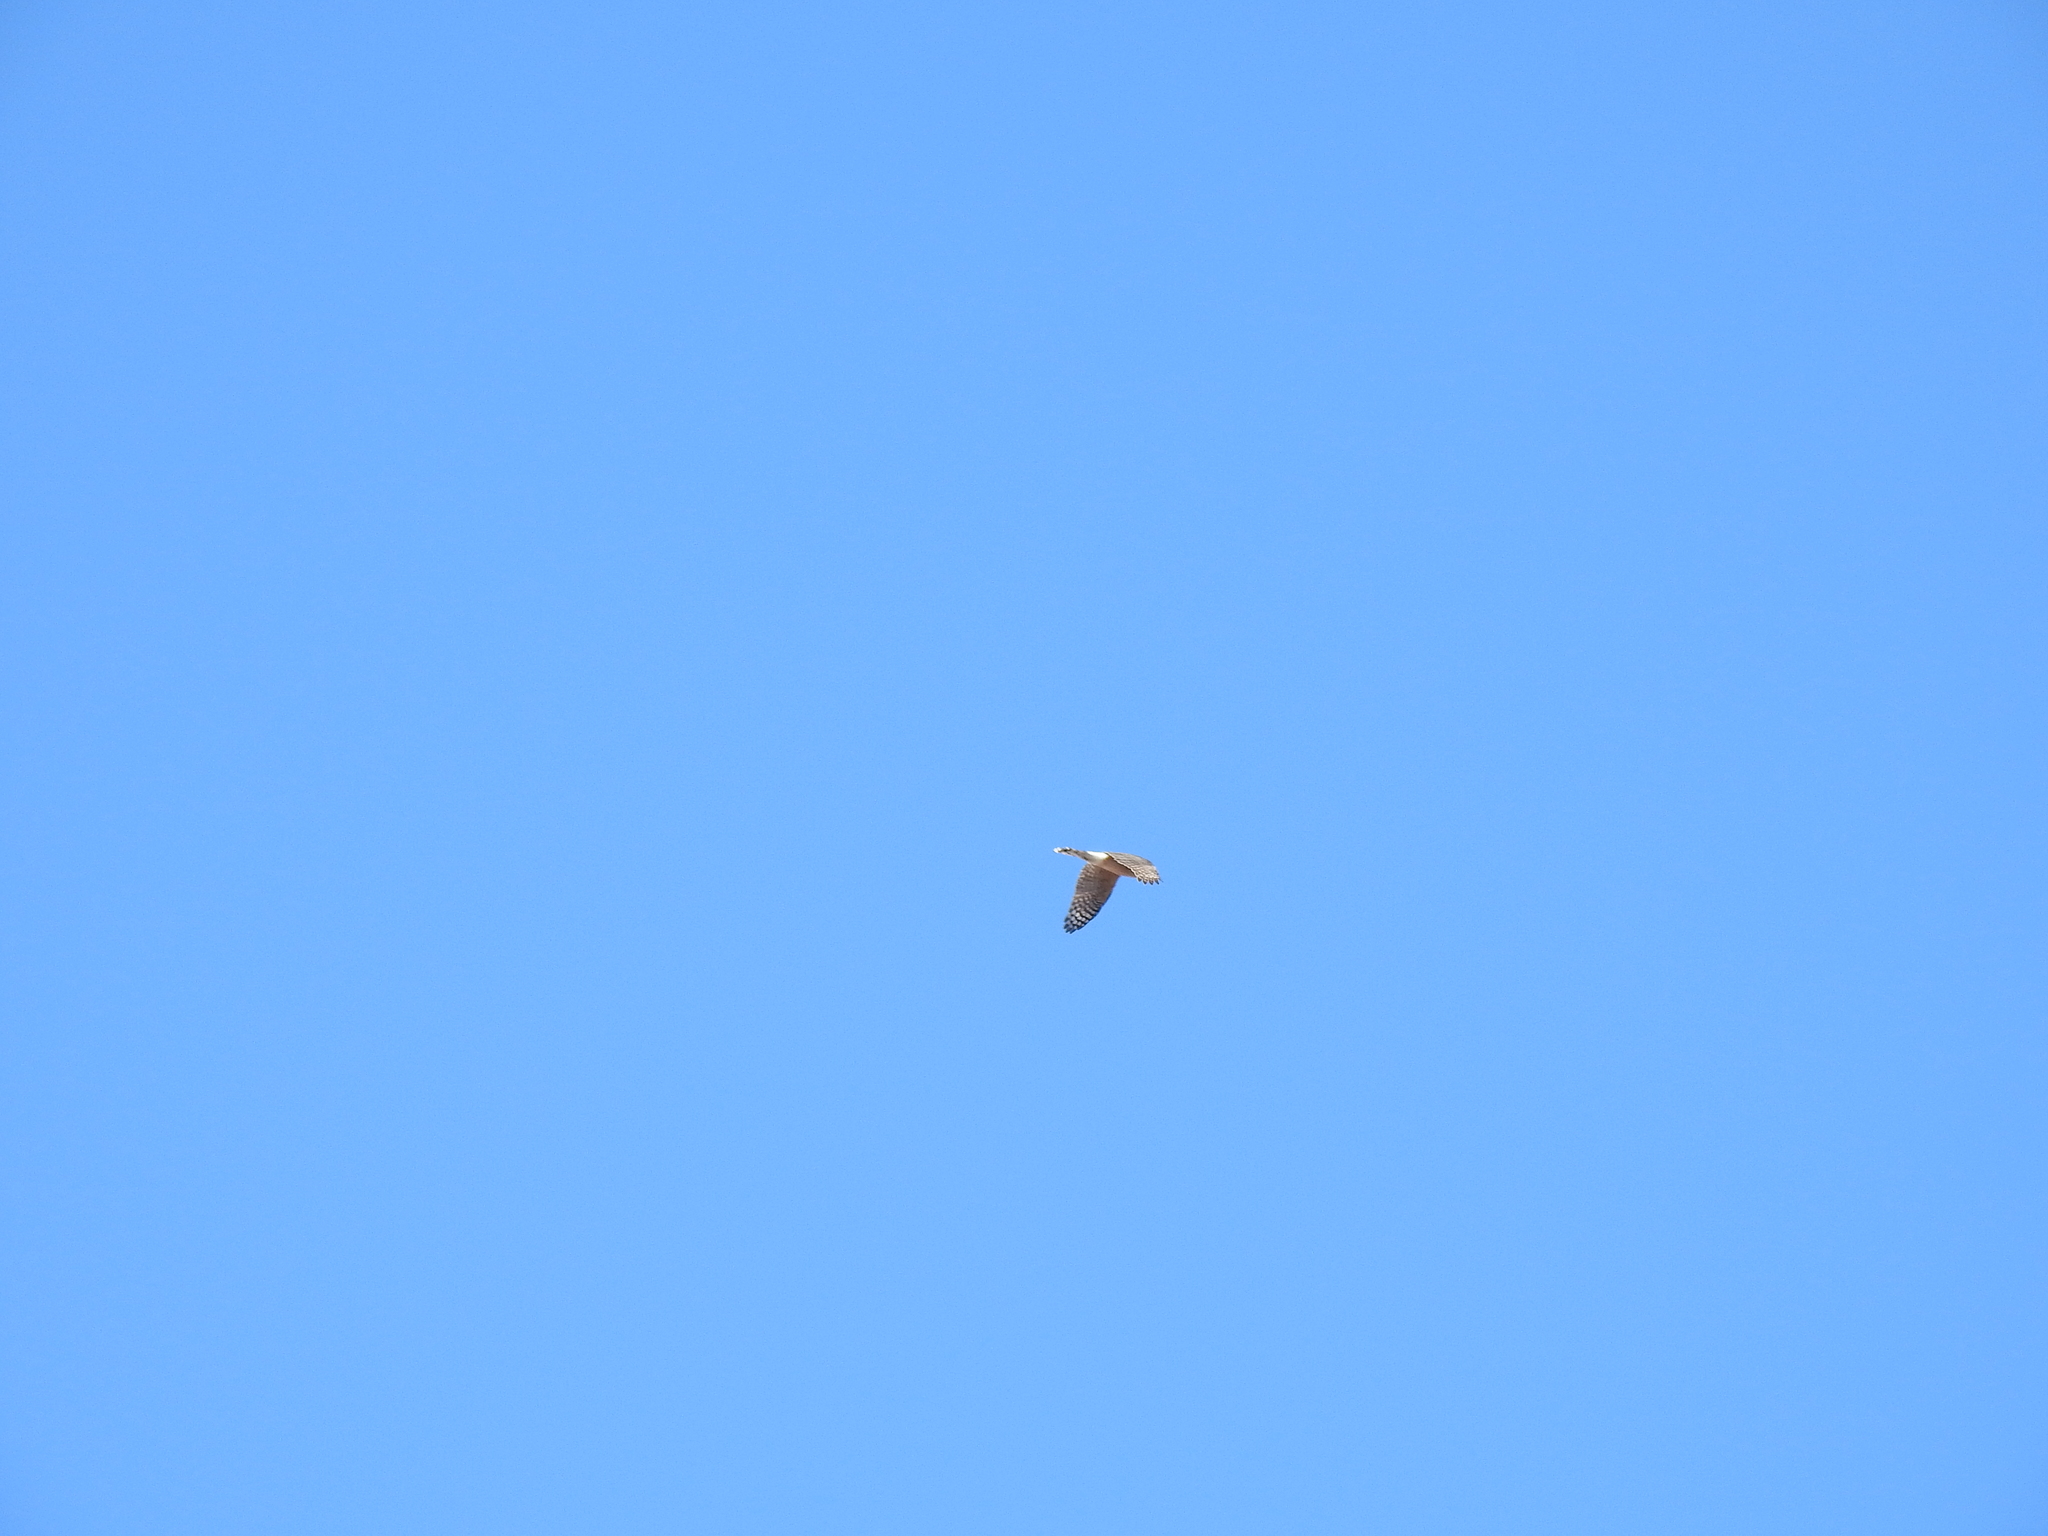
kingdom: Animalia
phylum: Chordata
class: Aves
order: Accipitriformes
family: Accipitridae
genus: Accipiter
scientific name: Accipiter cooperii
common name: Cooper's hawk
